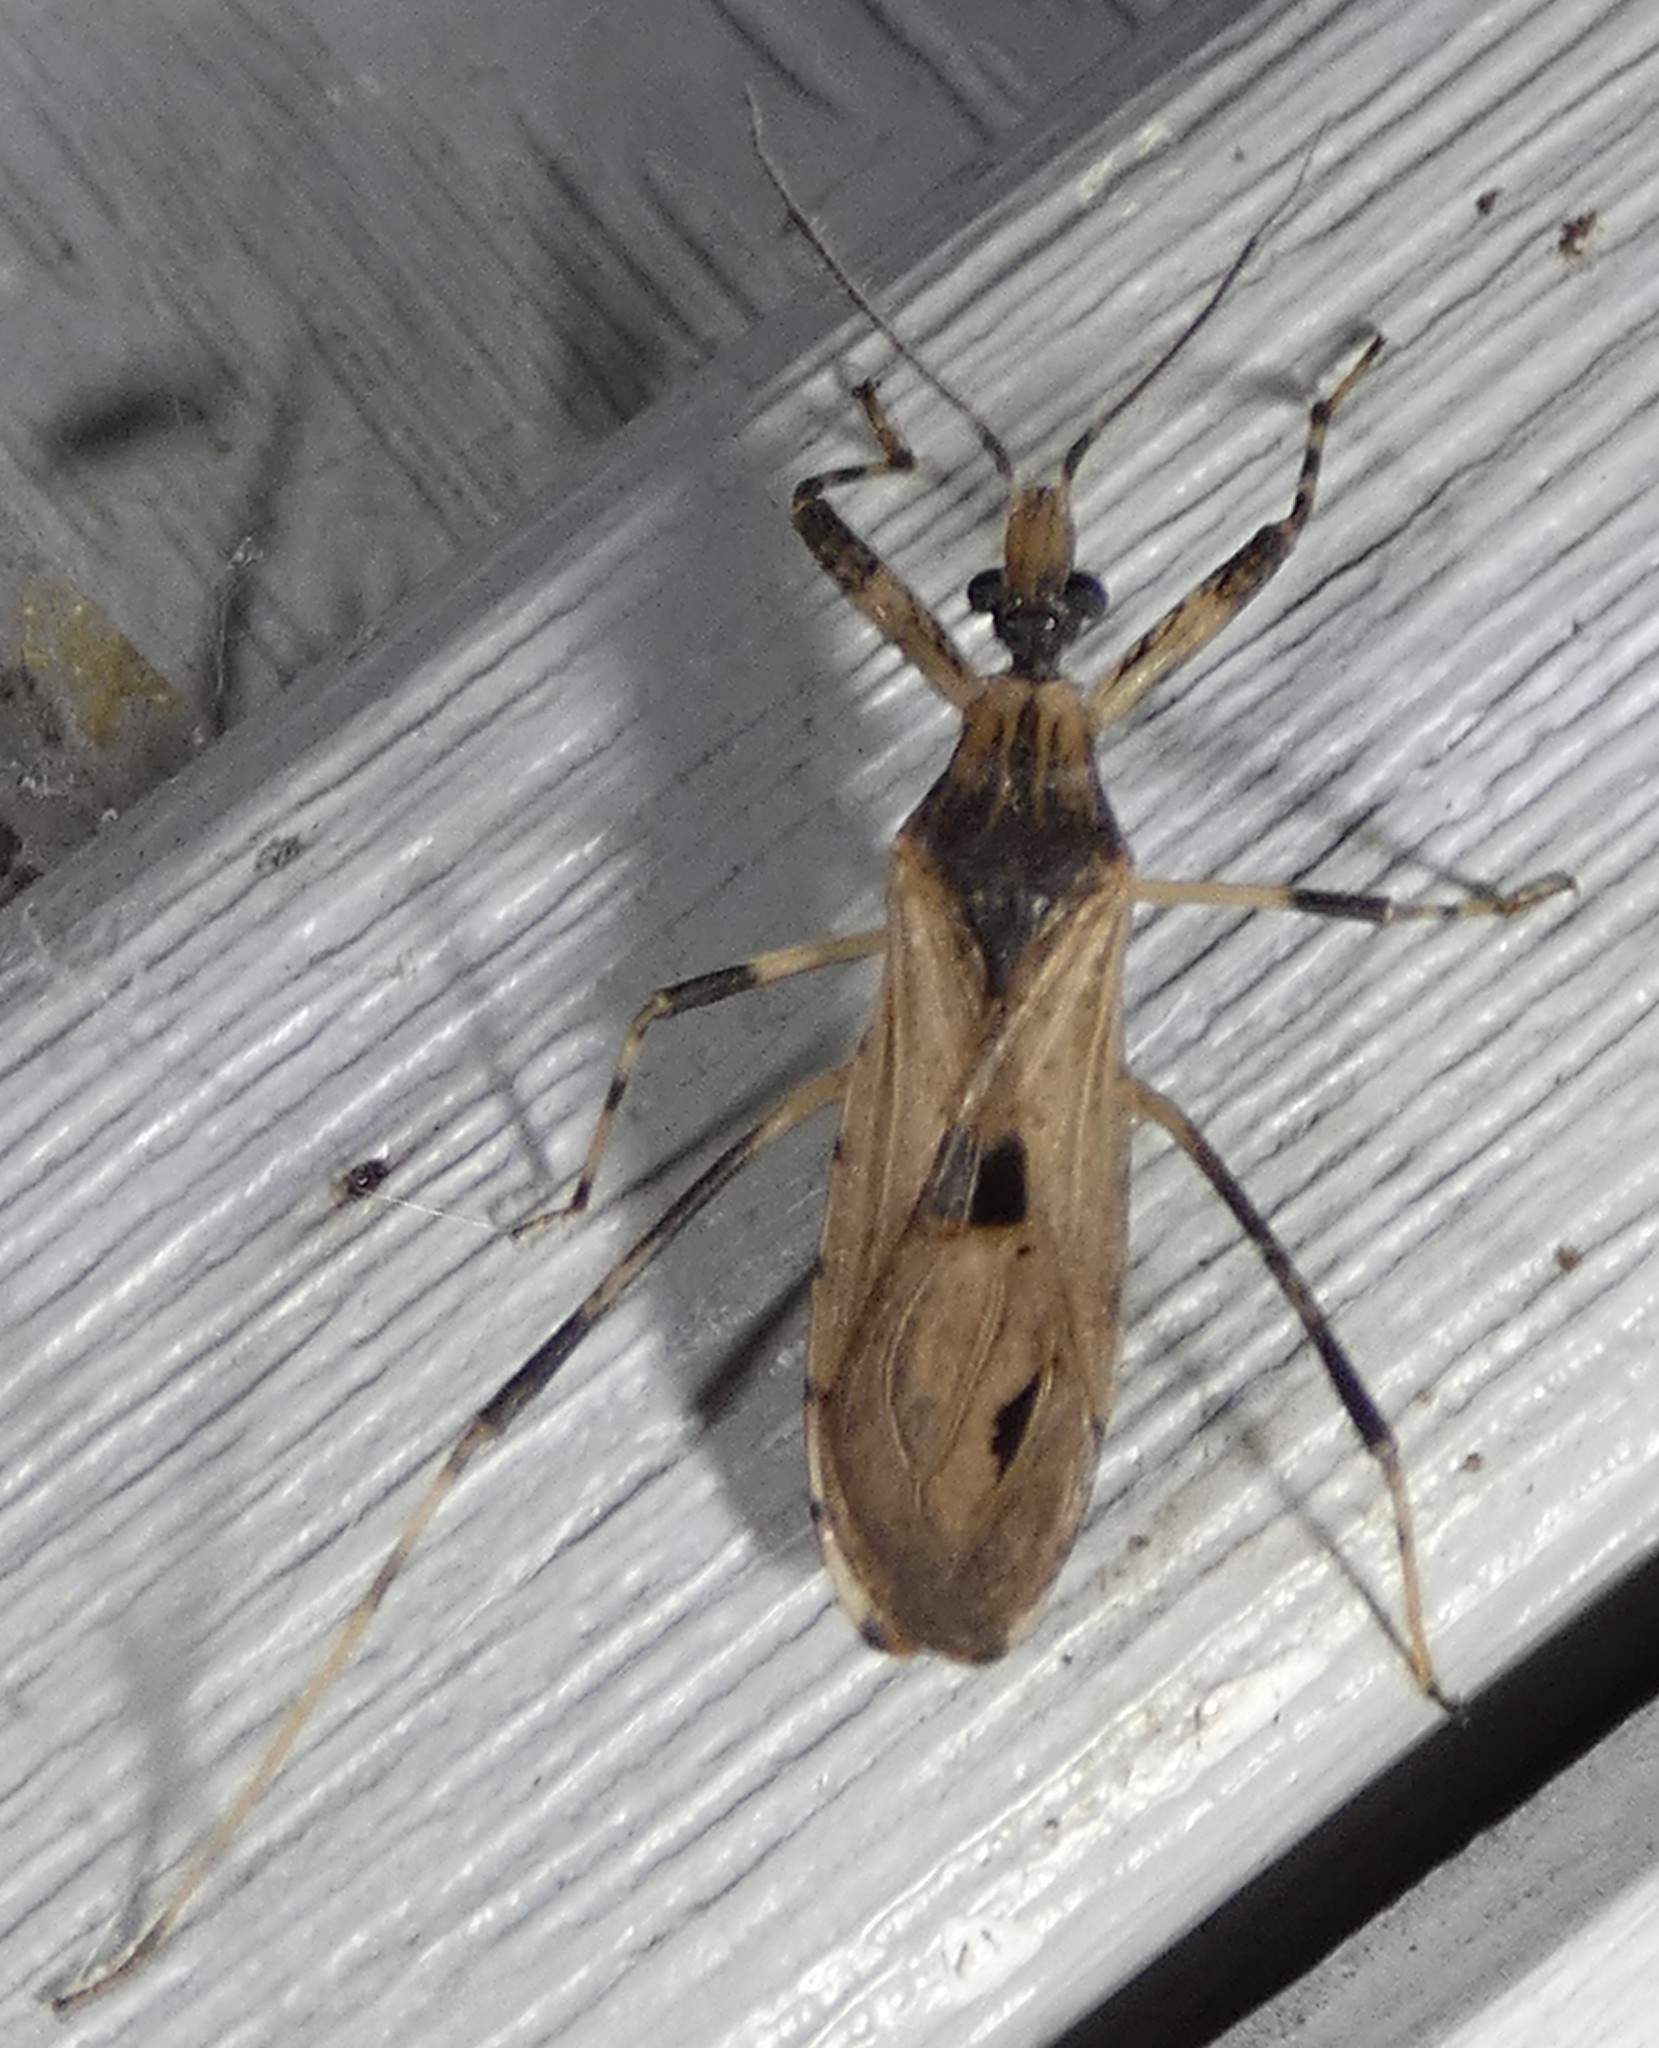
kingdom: Animalia
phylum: Arthropoda
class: Insecta
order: Hemiptera
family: Reduviidae
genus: Oncocephalus
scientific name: Oncocephalus geniculatus
